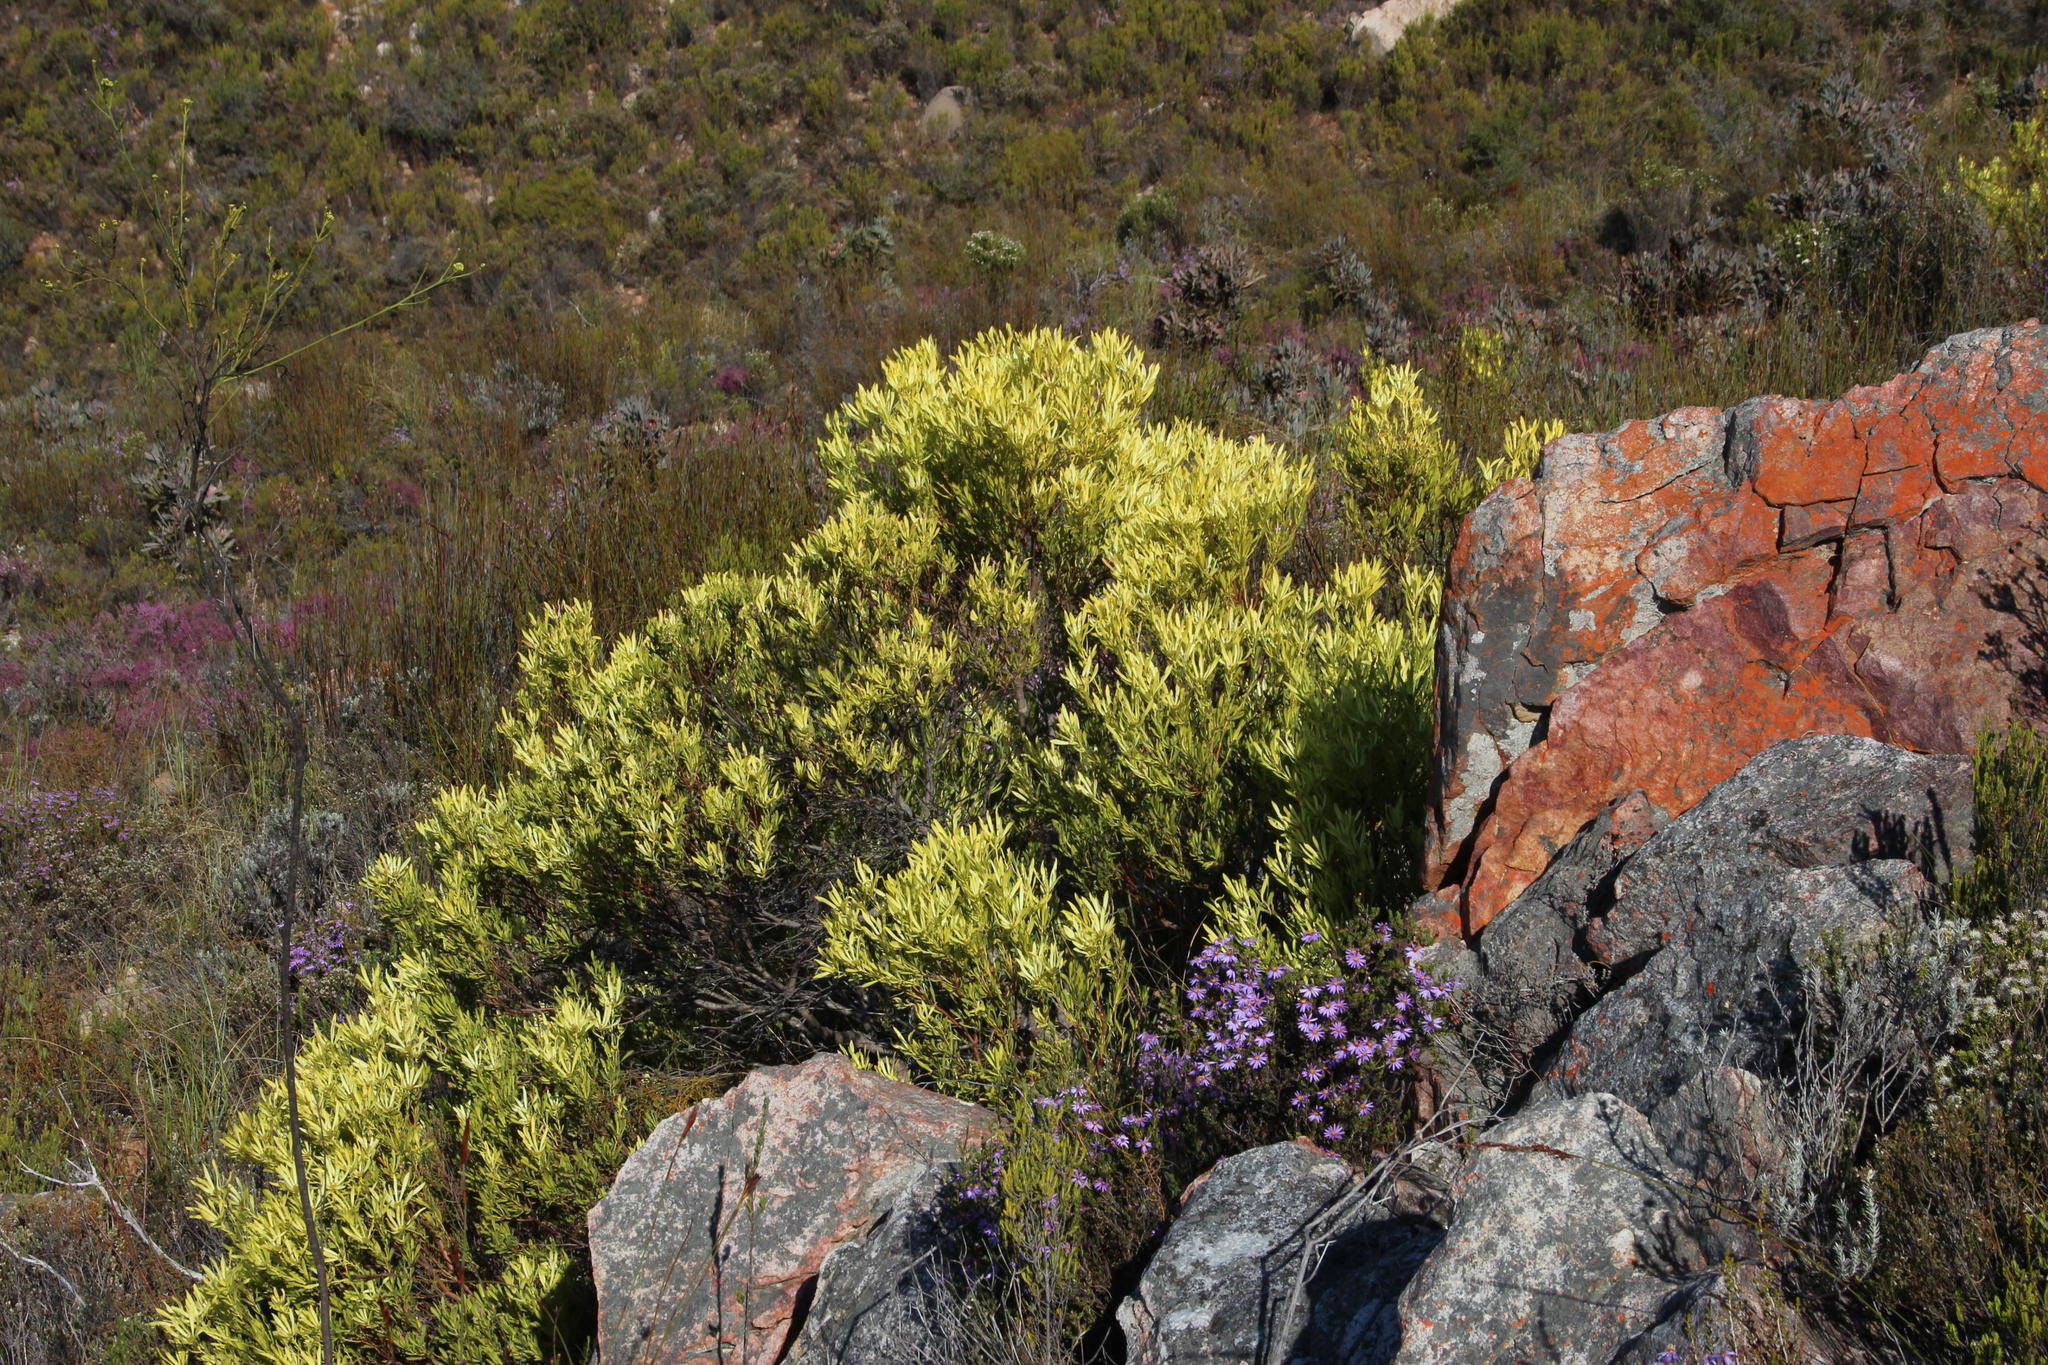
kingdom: Plantae
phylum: Tracheophyta
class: Magnoliopsida
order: Proteales
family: Proteaceae
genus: Leucadendron
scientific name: Leucadendron salignum
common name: Common sunshine conebush
